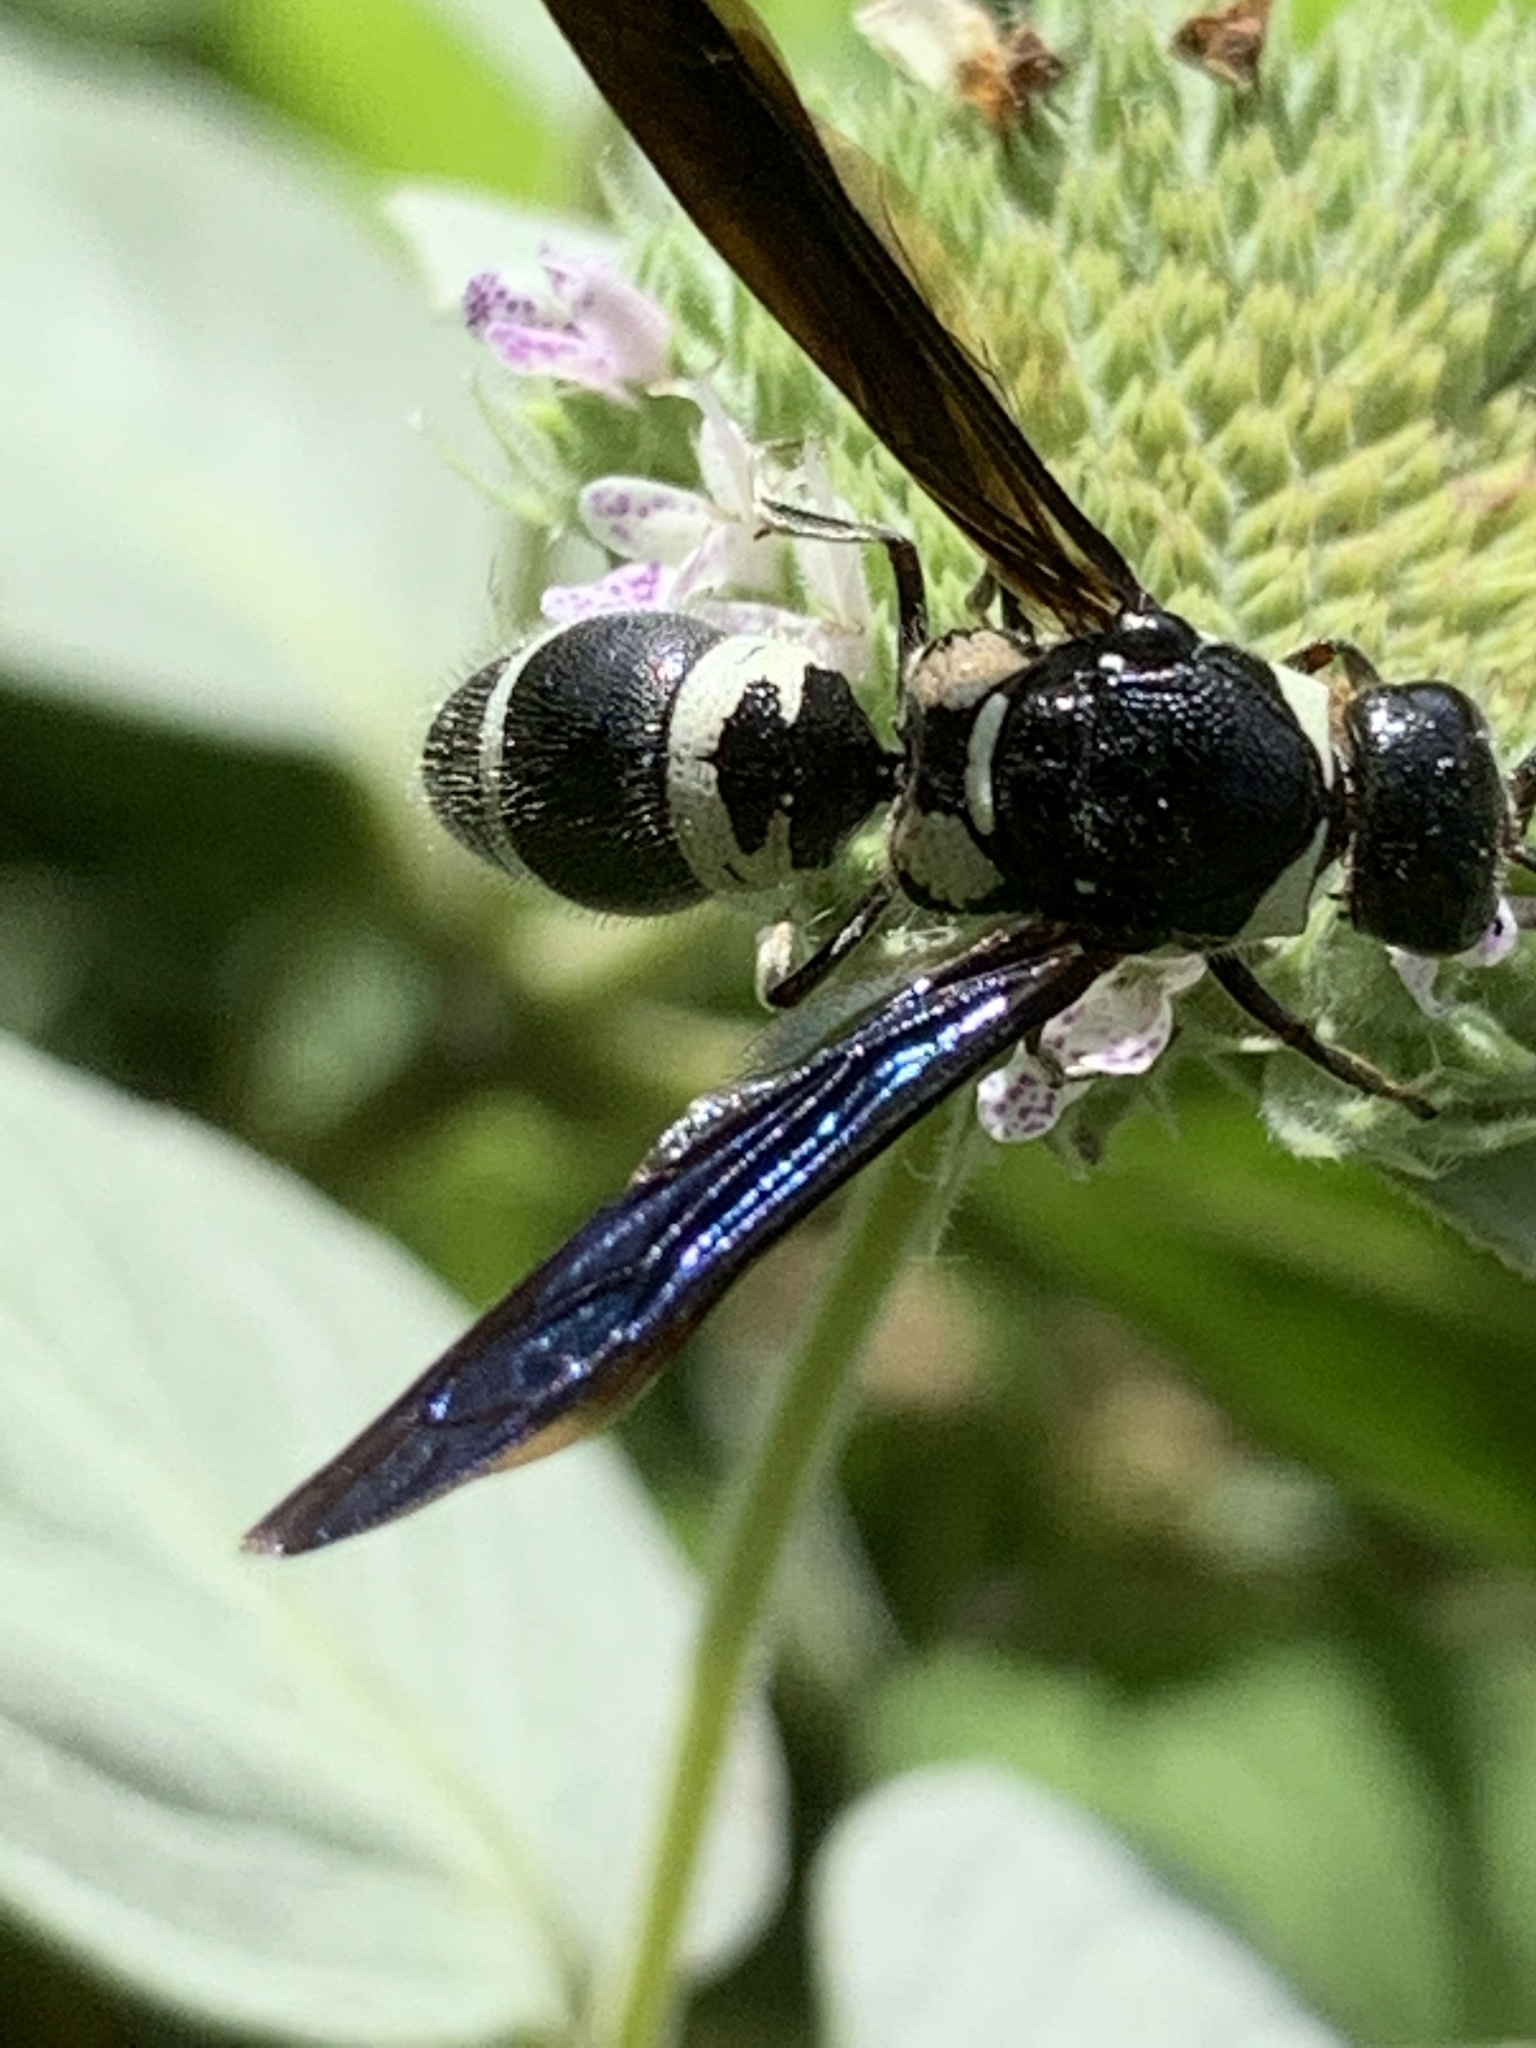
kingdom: Animalia
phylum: Arthropoda
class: Insecta
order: Hymenoptera
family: Eumenidae
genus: Pseudodynerus
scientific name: Pseudodynerus quadrisectus
